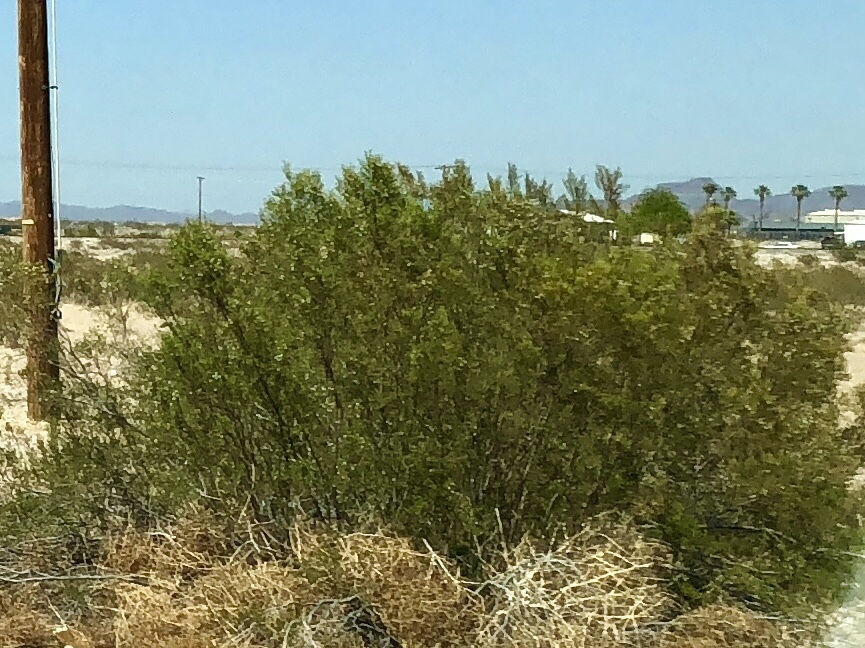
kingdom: Plantae
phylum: Tracheophyta
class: Magnoliopsida
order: Zygophyllales
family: Zygophyllaceae
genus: Larrea
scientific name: Larrea tridentata
